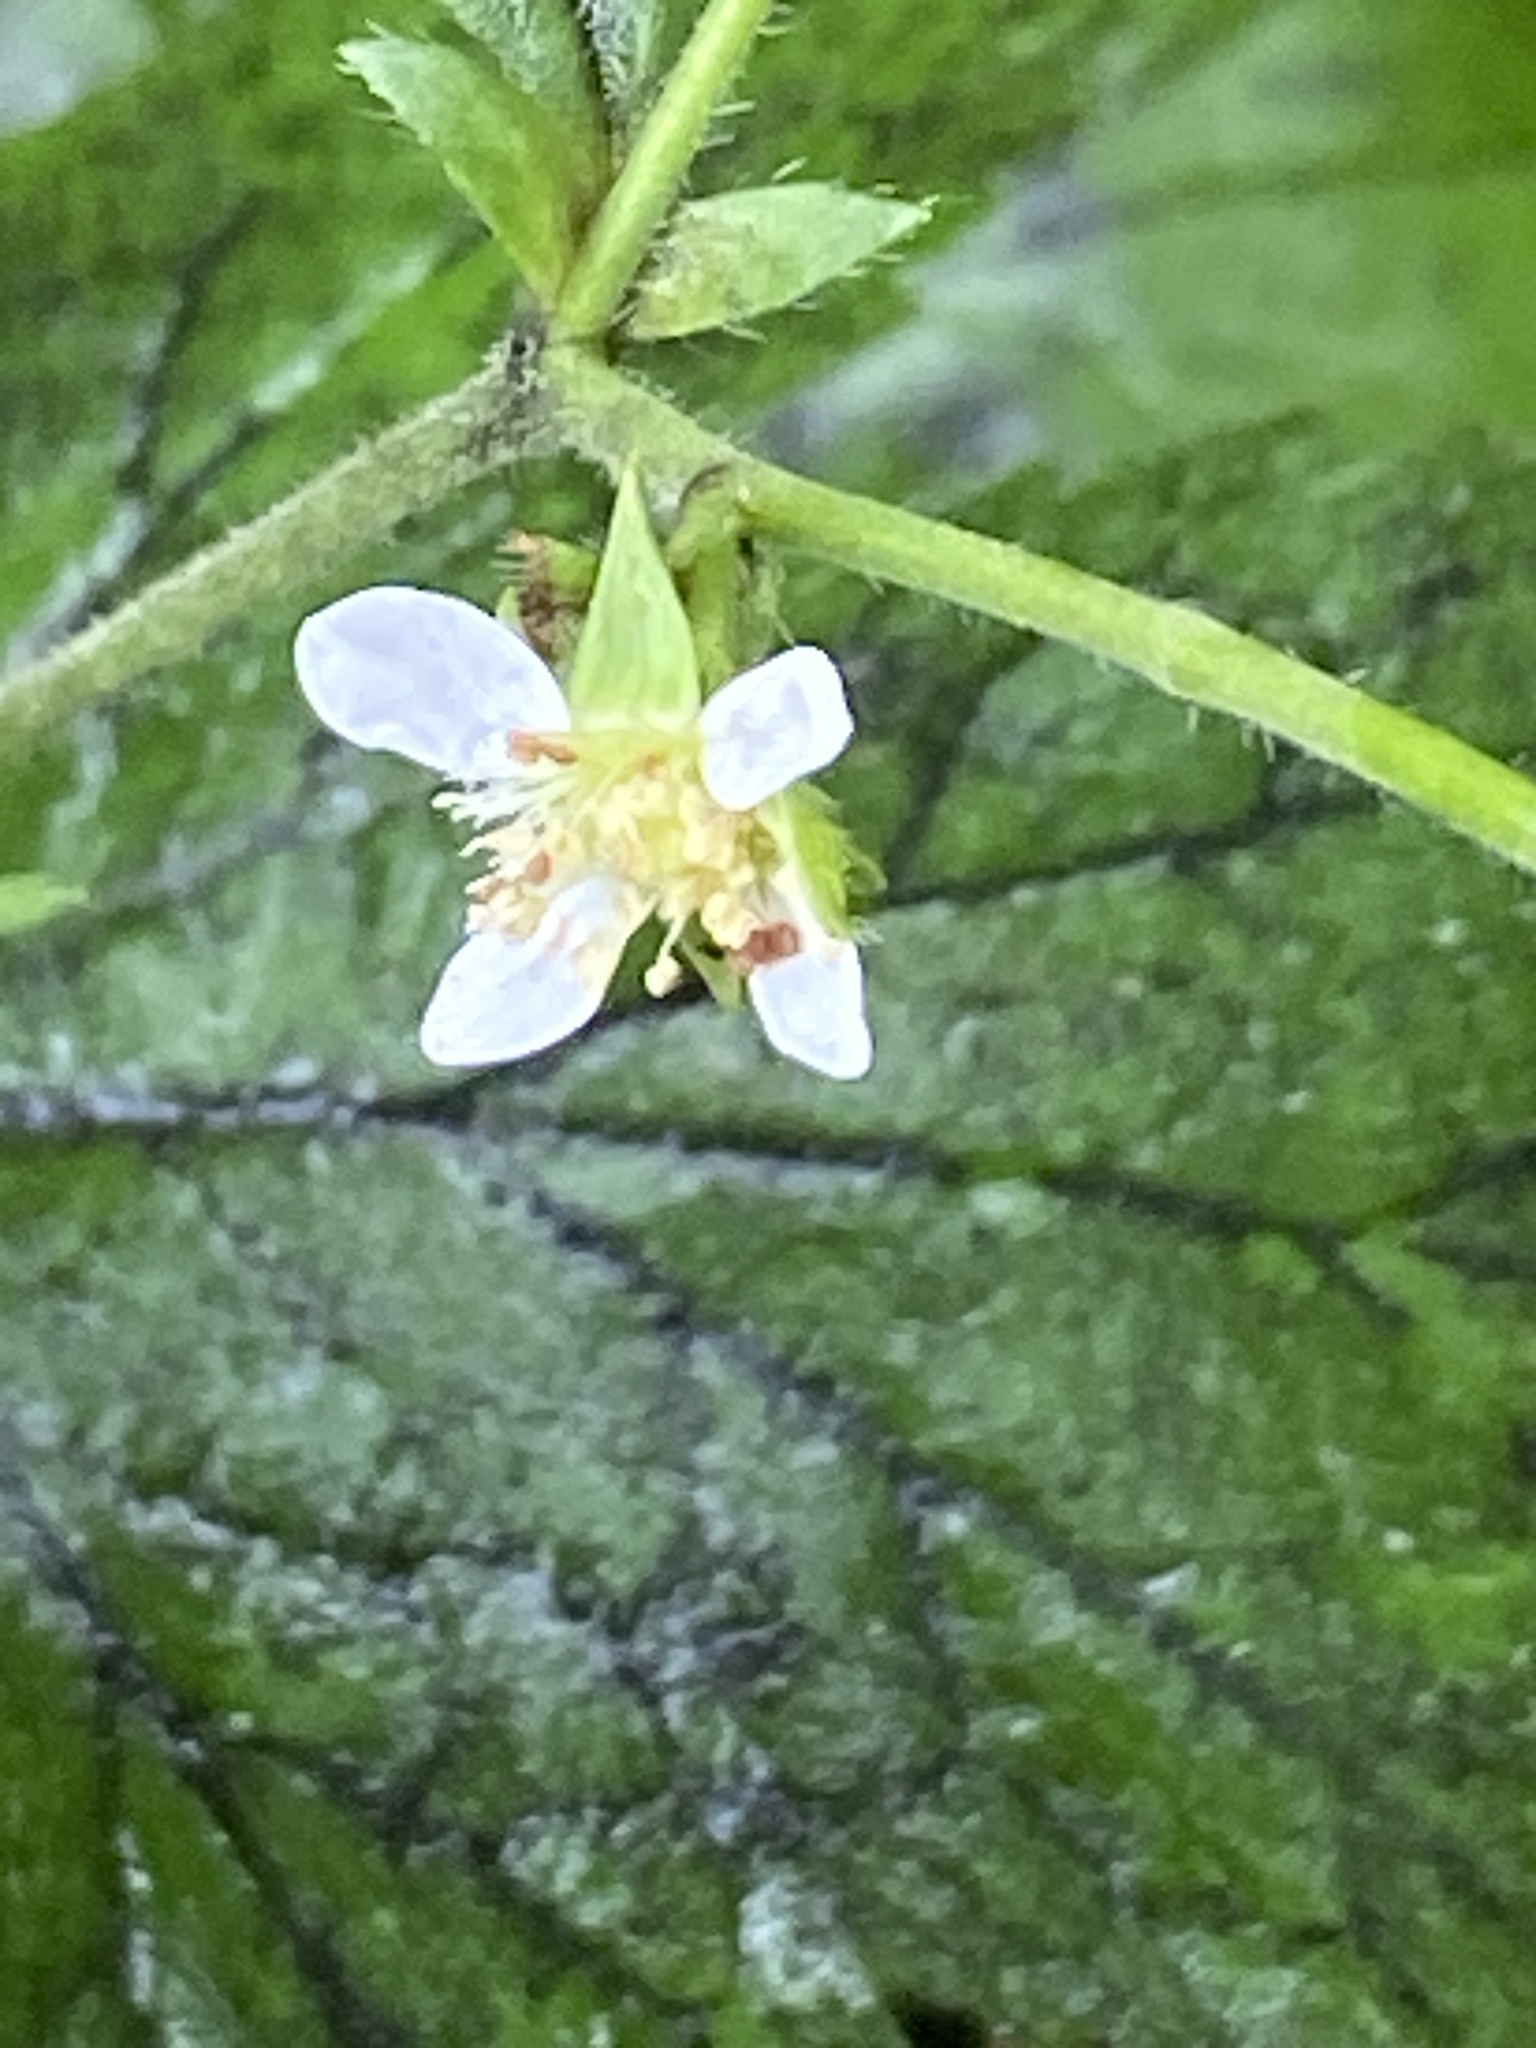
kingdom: Plantae
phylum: Tracheophyta
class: Magnoliopsida
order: Rosales
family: Rosaceae
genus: Geum
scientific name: Geum canadense
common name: White avens
